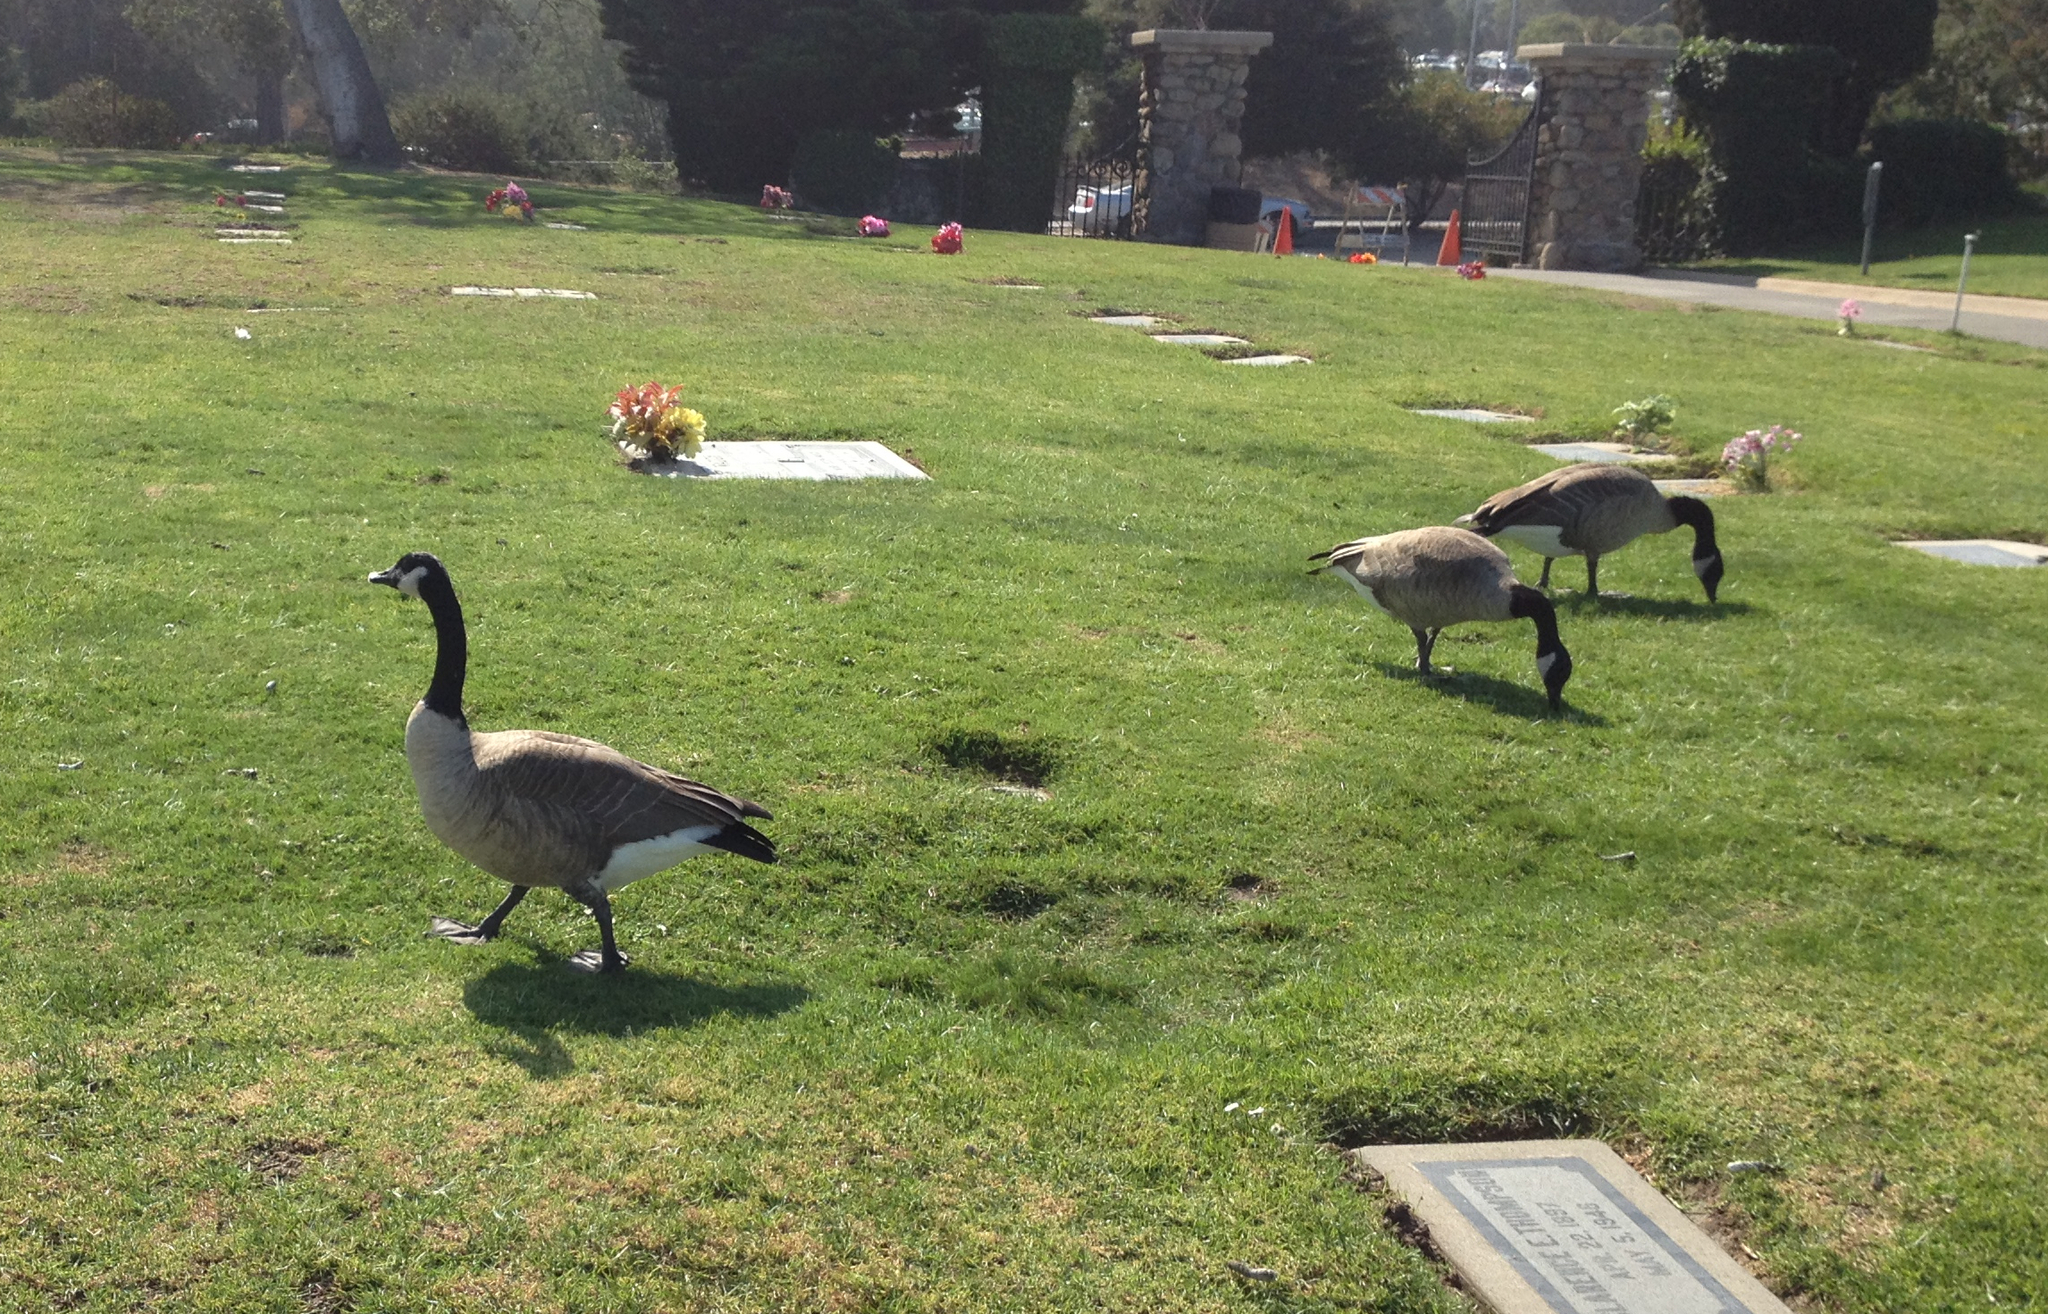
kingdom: Animalia
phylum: Chordata
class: Aves
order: Anseriformes
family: Anatidae
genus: Branta
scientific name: Branta canadensis
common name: Canada goose
